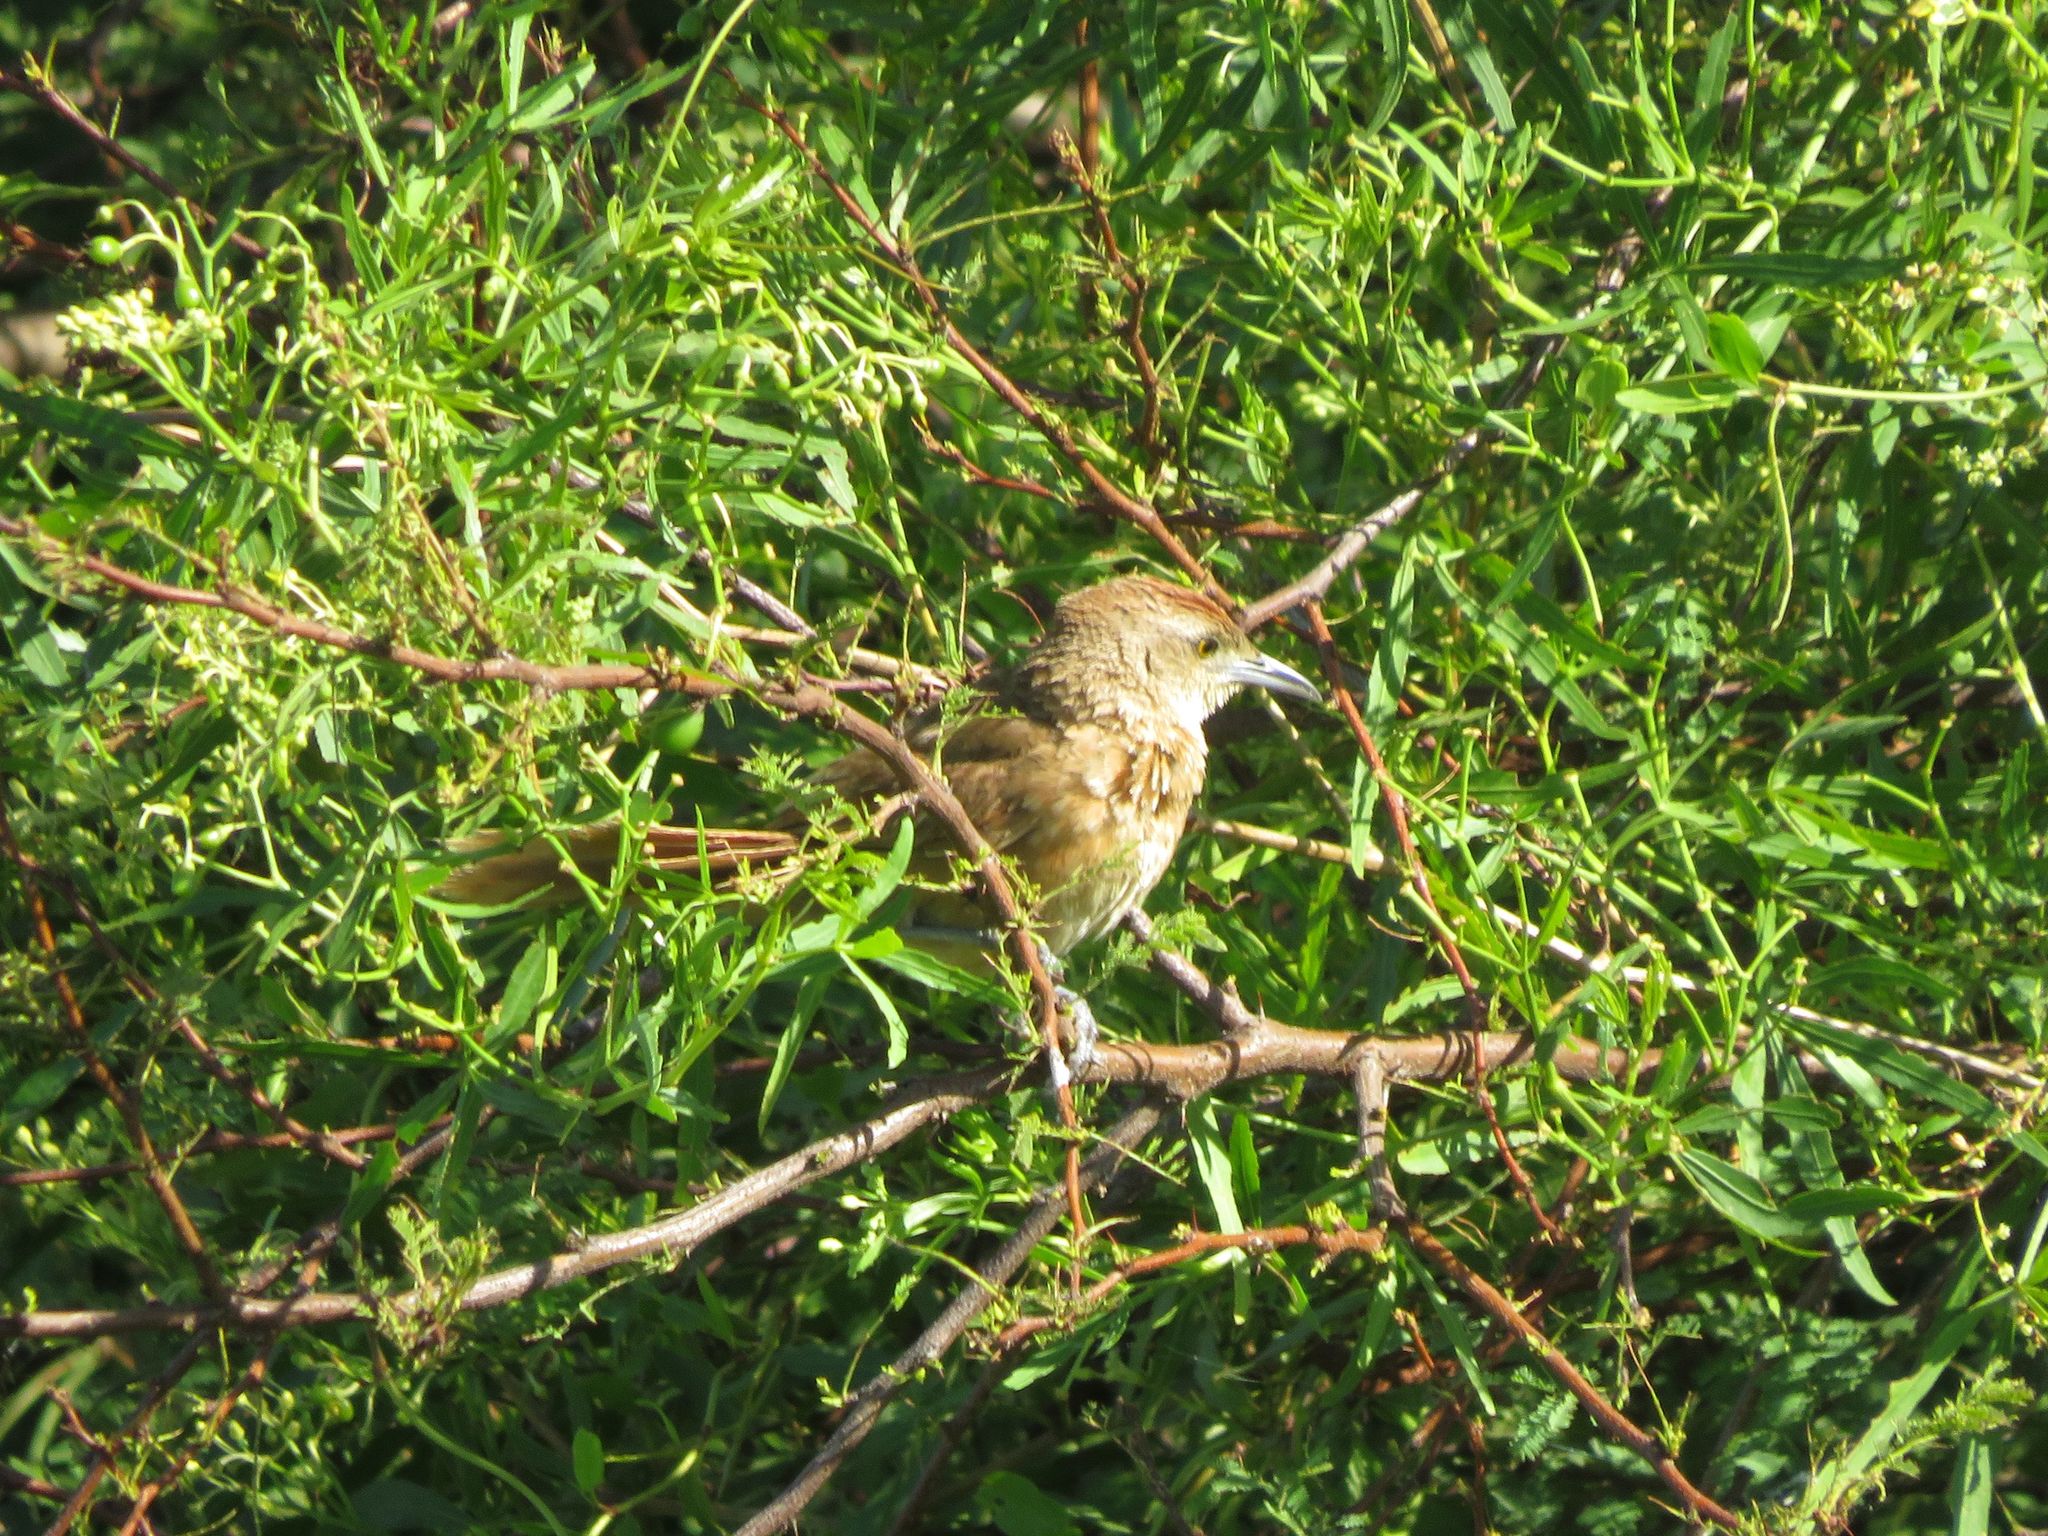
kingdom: Animalia
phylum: Chordata
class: Aves
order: Passeriformes
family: Furnariidae
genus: Phacellodomus
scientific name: Phacellodomus striaticollis
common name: Freckle-breasted thornbird
